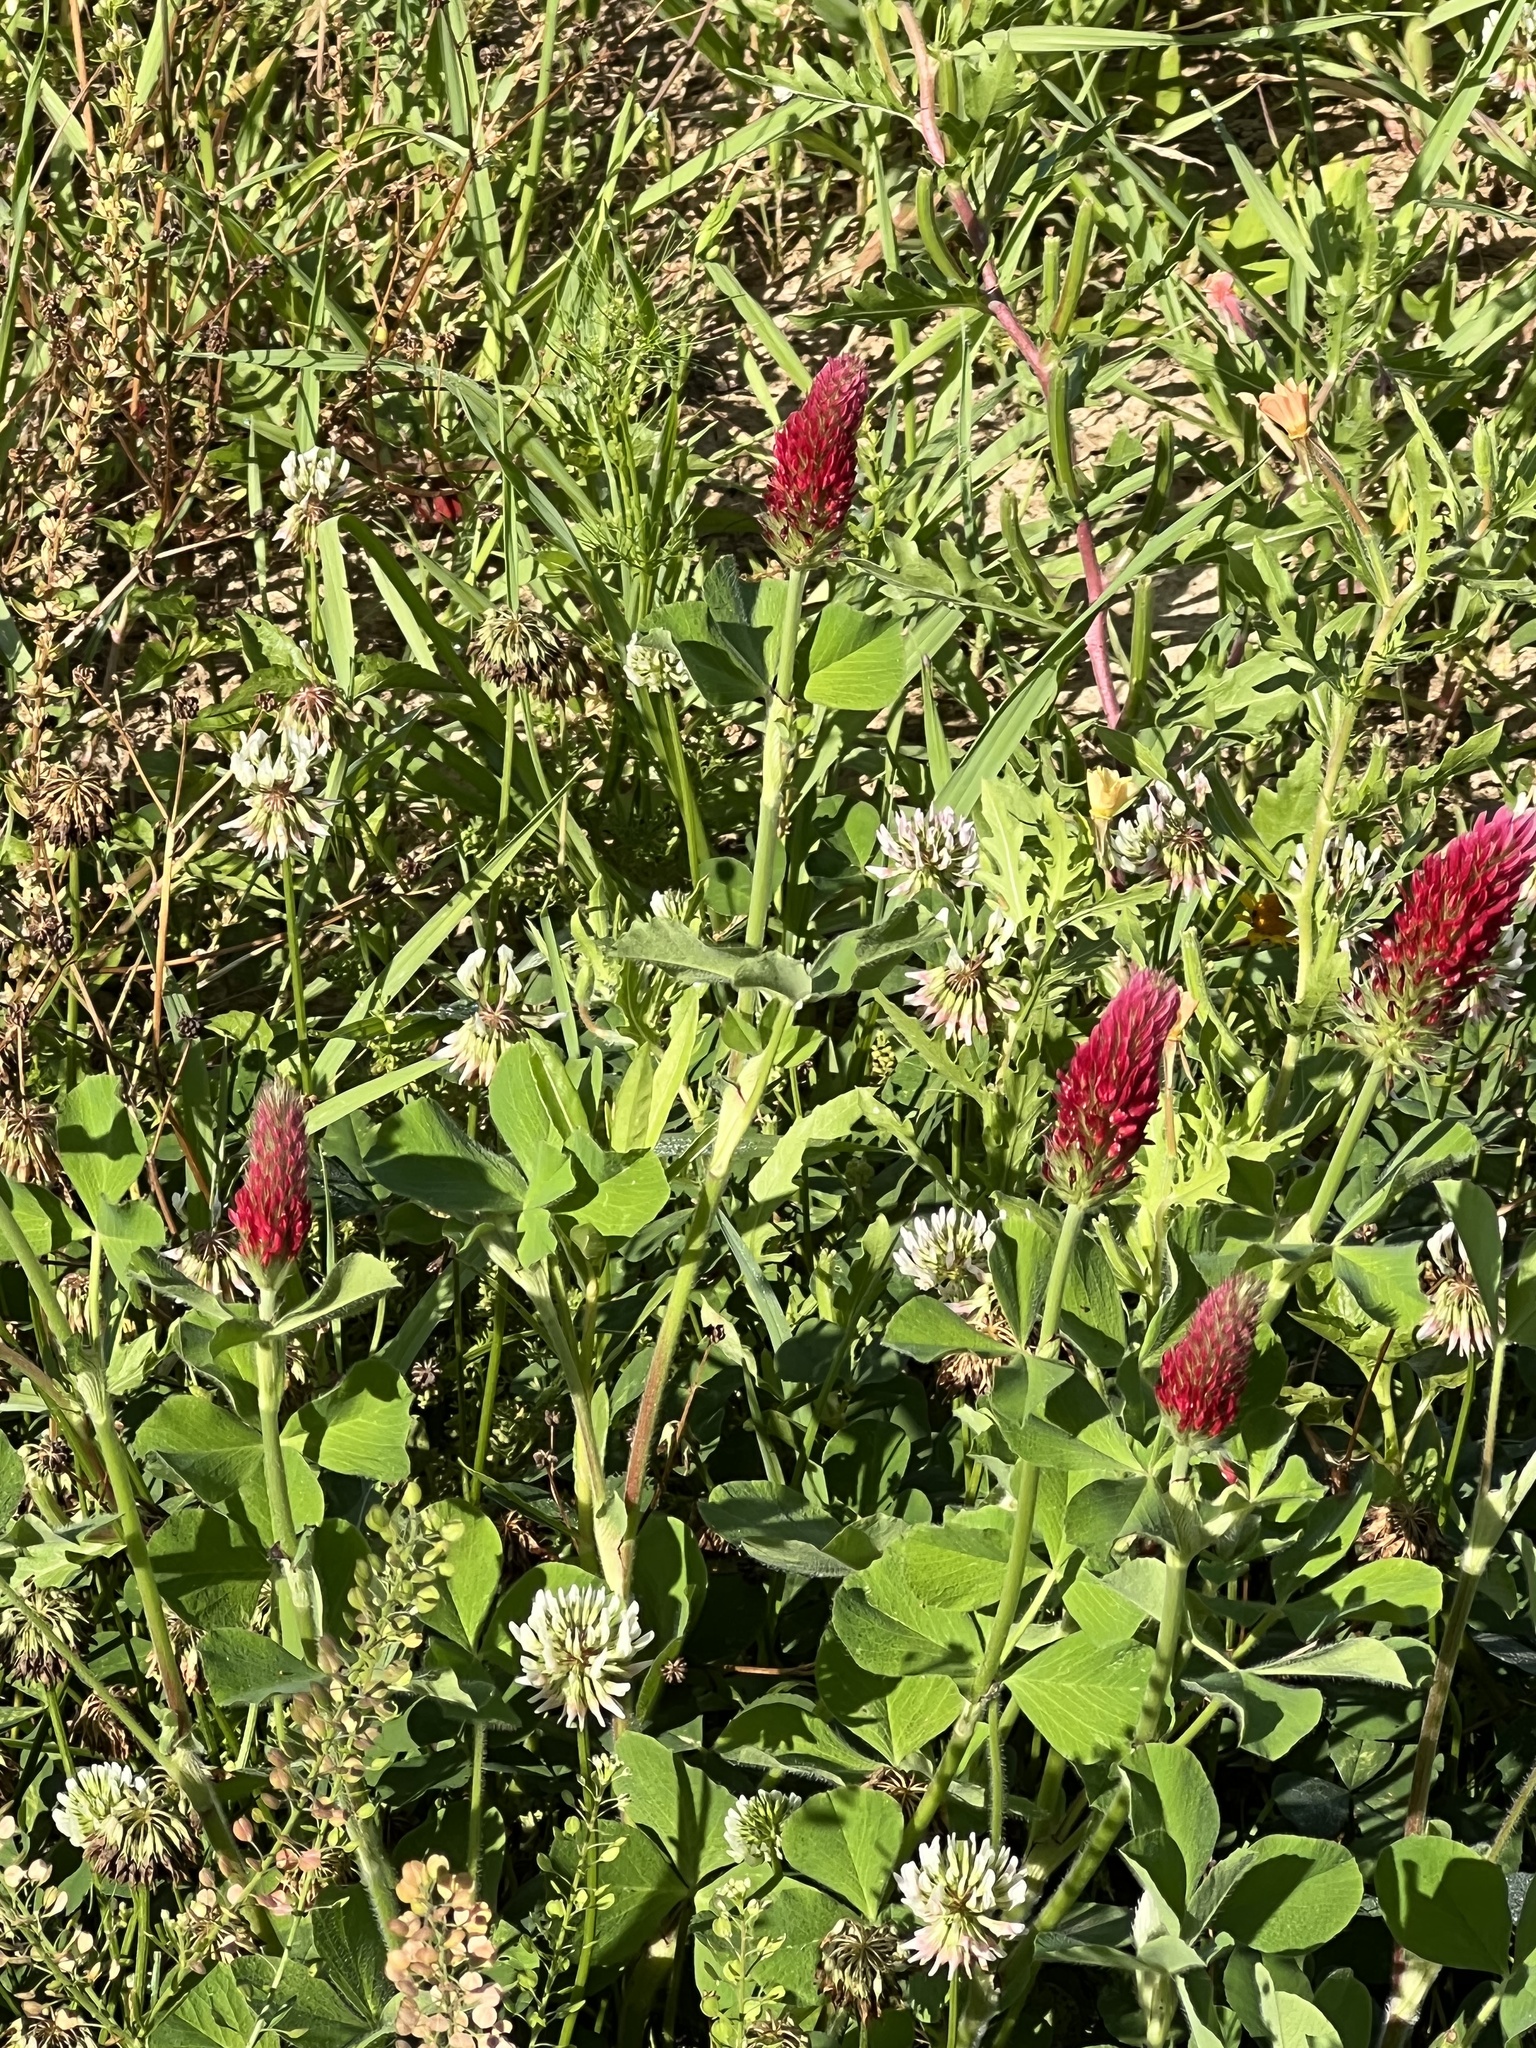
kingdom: Plantae
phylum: Tracheophyta
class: Magnoliopsida
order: Fabales
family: Fabaceae
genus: Trifolium
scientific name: Trifolium incarnatum
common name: Crimson clover
